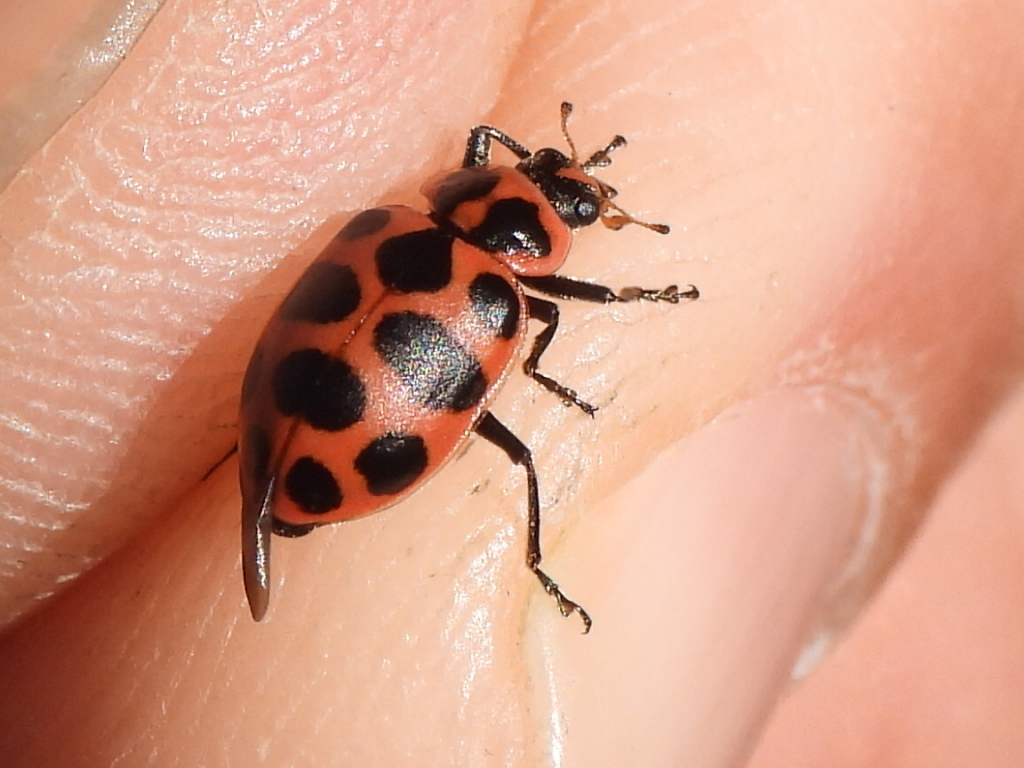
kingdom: Animalia
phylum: Arthropoda
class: Insecta
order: Coleoptera
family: Coccinellidae
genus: Coleomegilla
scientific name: Coleomegilla maculata
